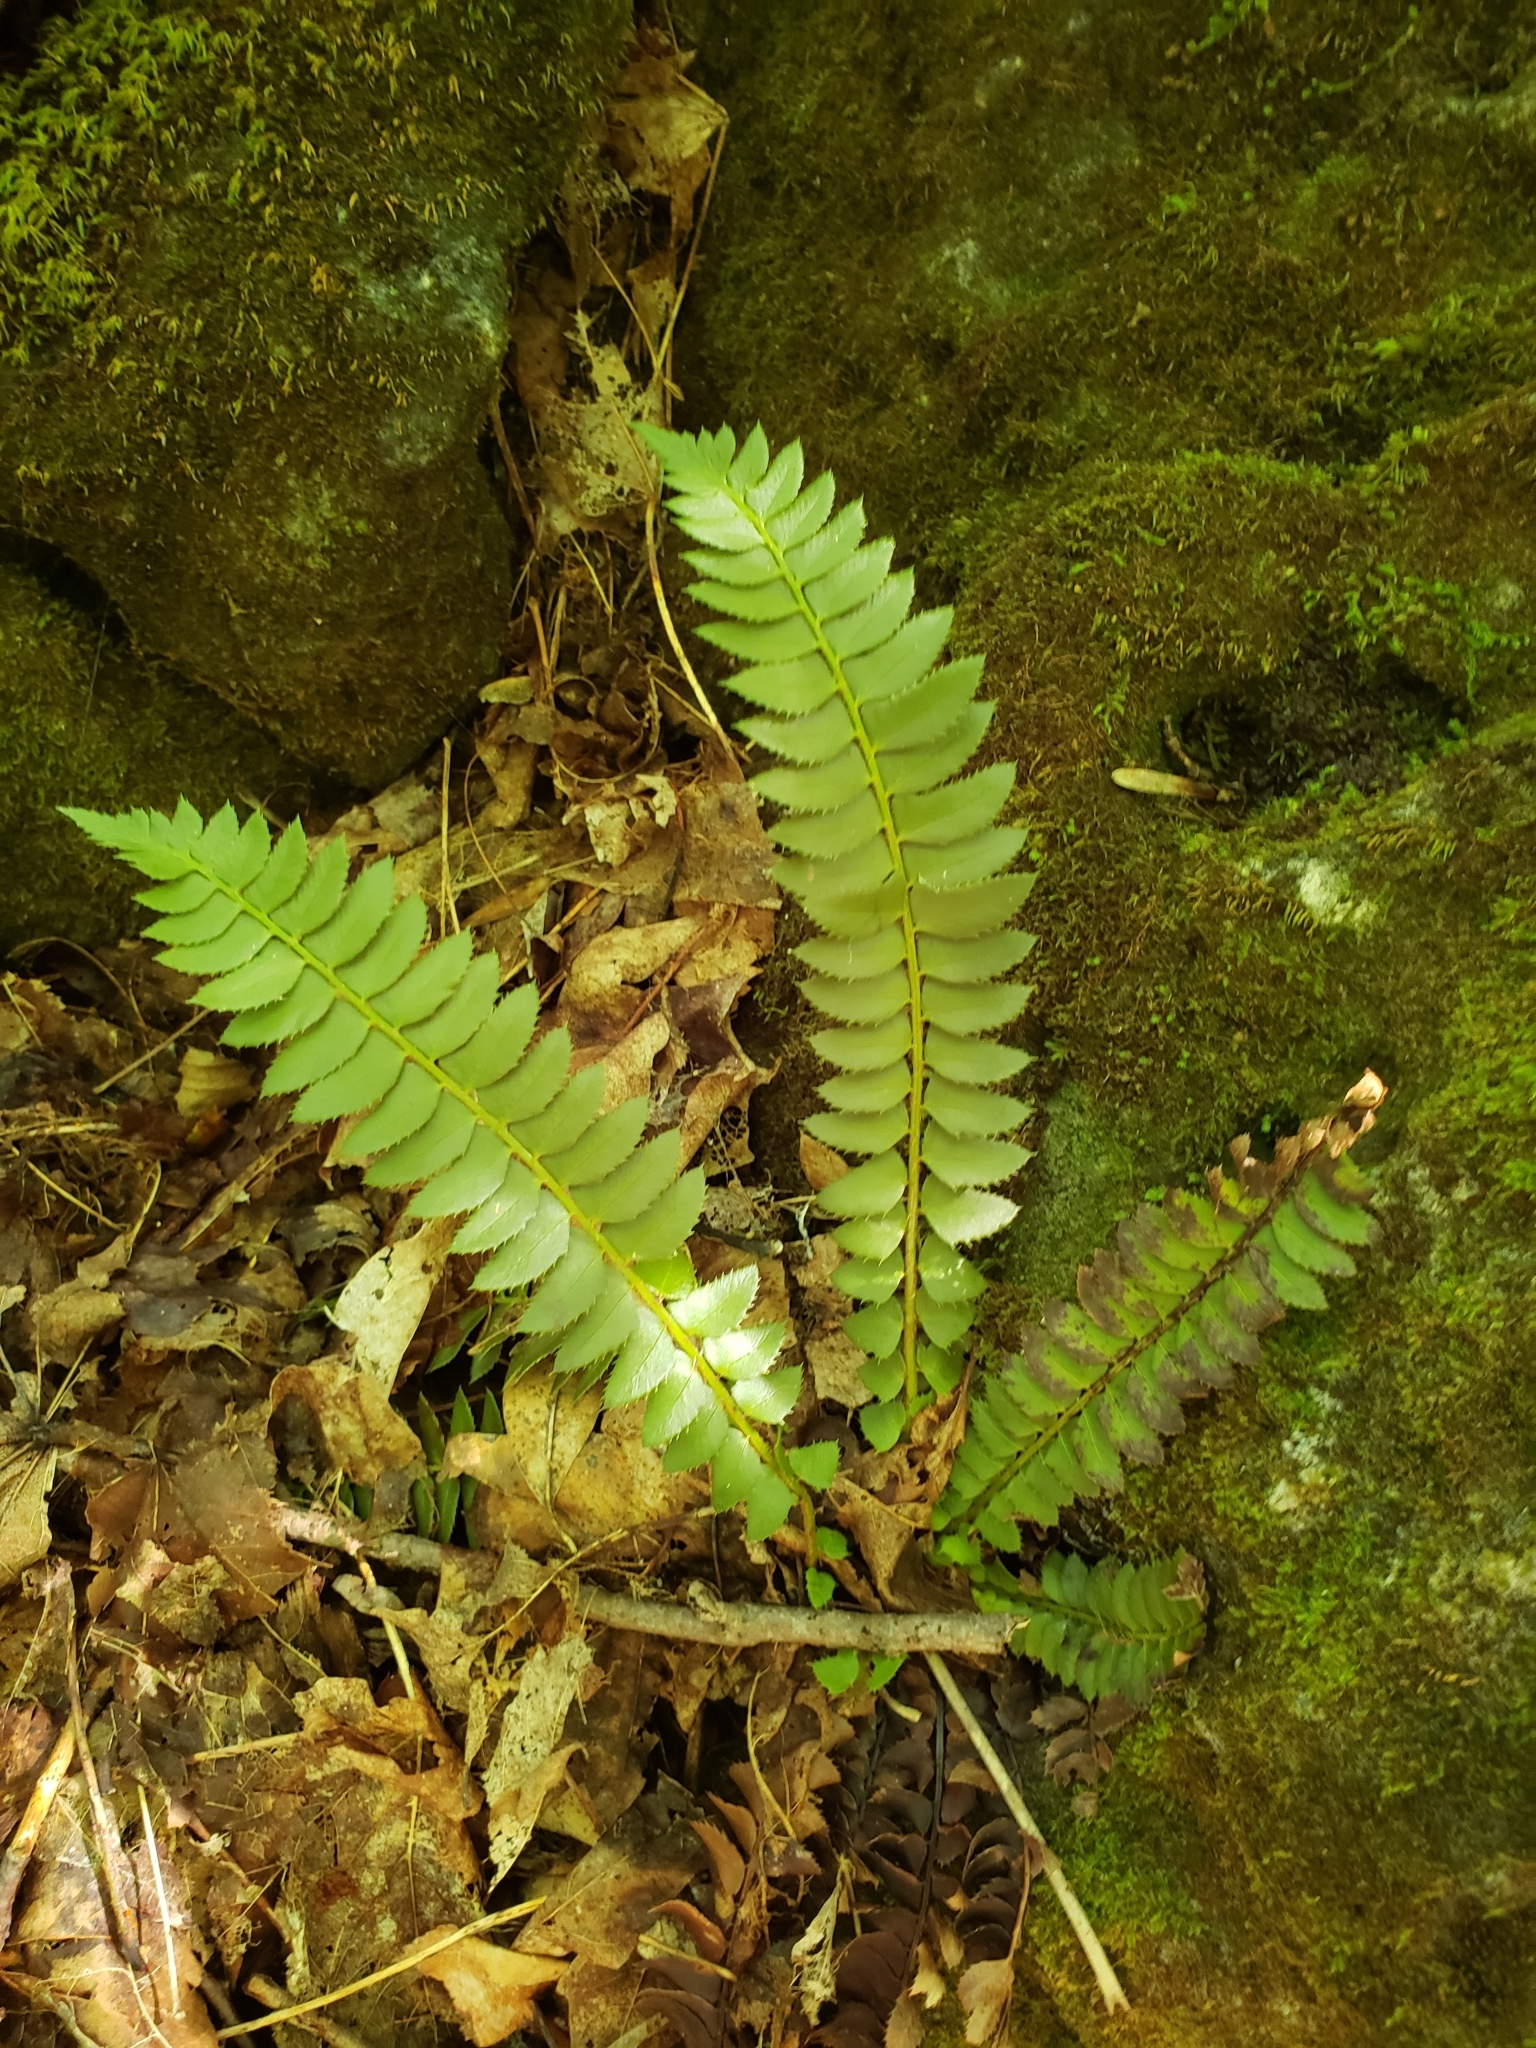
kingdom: Plantae
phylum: Tracheophyta
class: Polypodiopsida
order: Polypodiales
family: Dryopteridaceae
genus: Polystichum
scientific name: Polystichum lonchitis
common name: Holly fern
